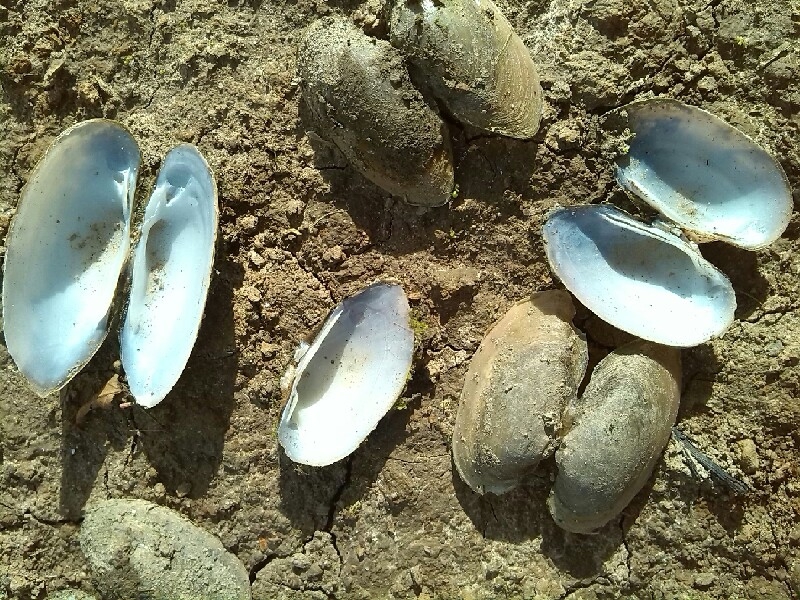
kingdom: Animalia
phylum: Mollusca
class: Bivalvia
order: Unionida
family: Unionidae
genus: Unio
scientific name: Unio tumidus
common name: Swollen river mussel
